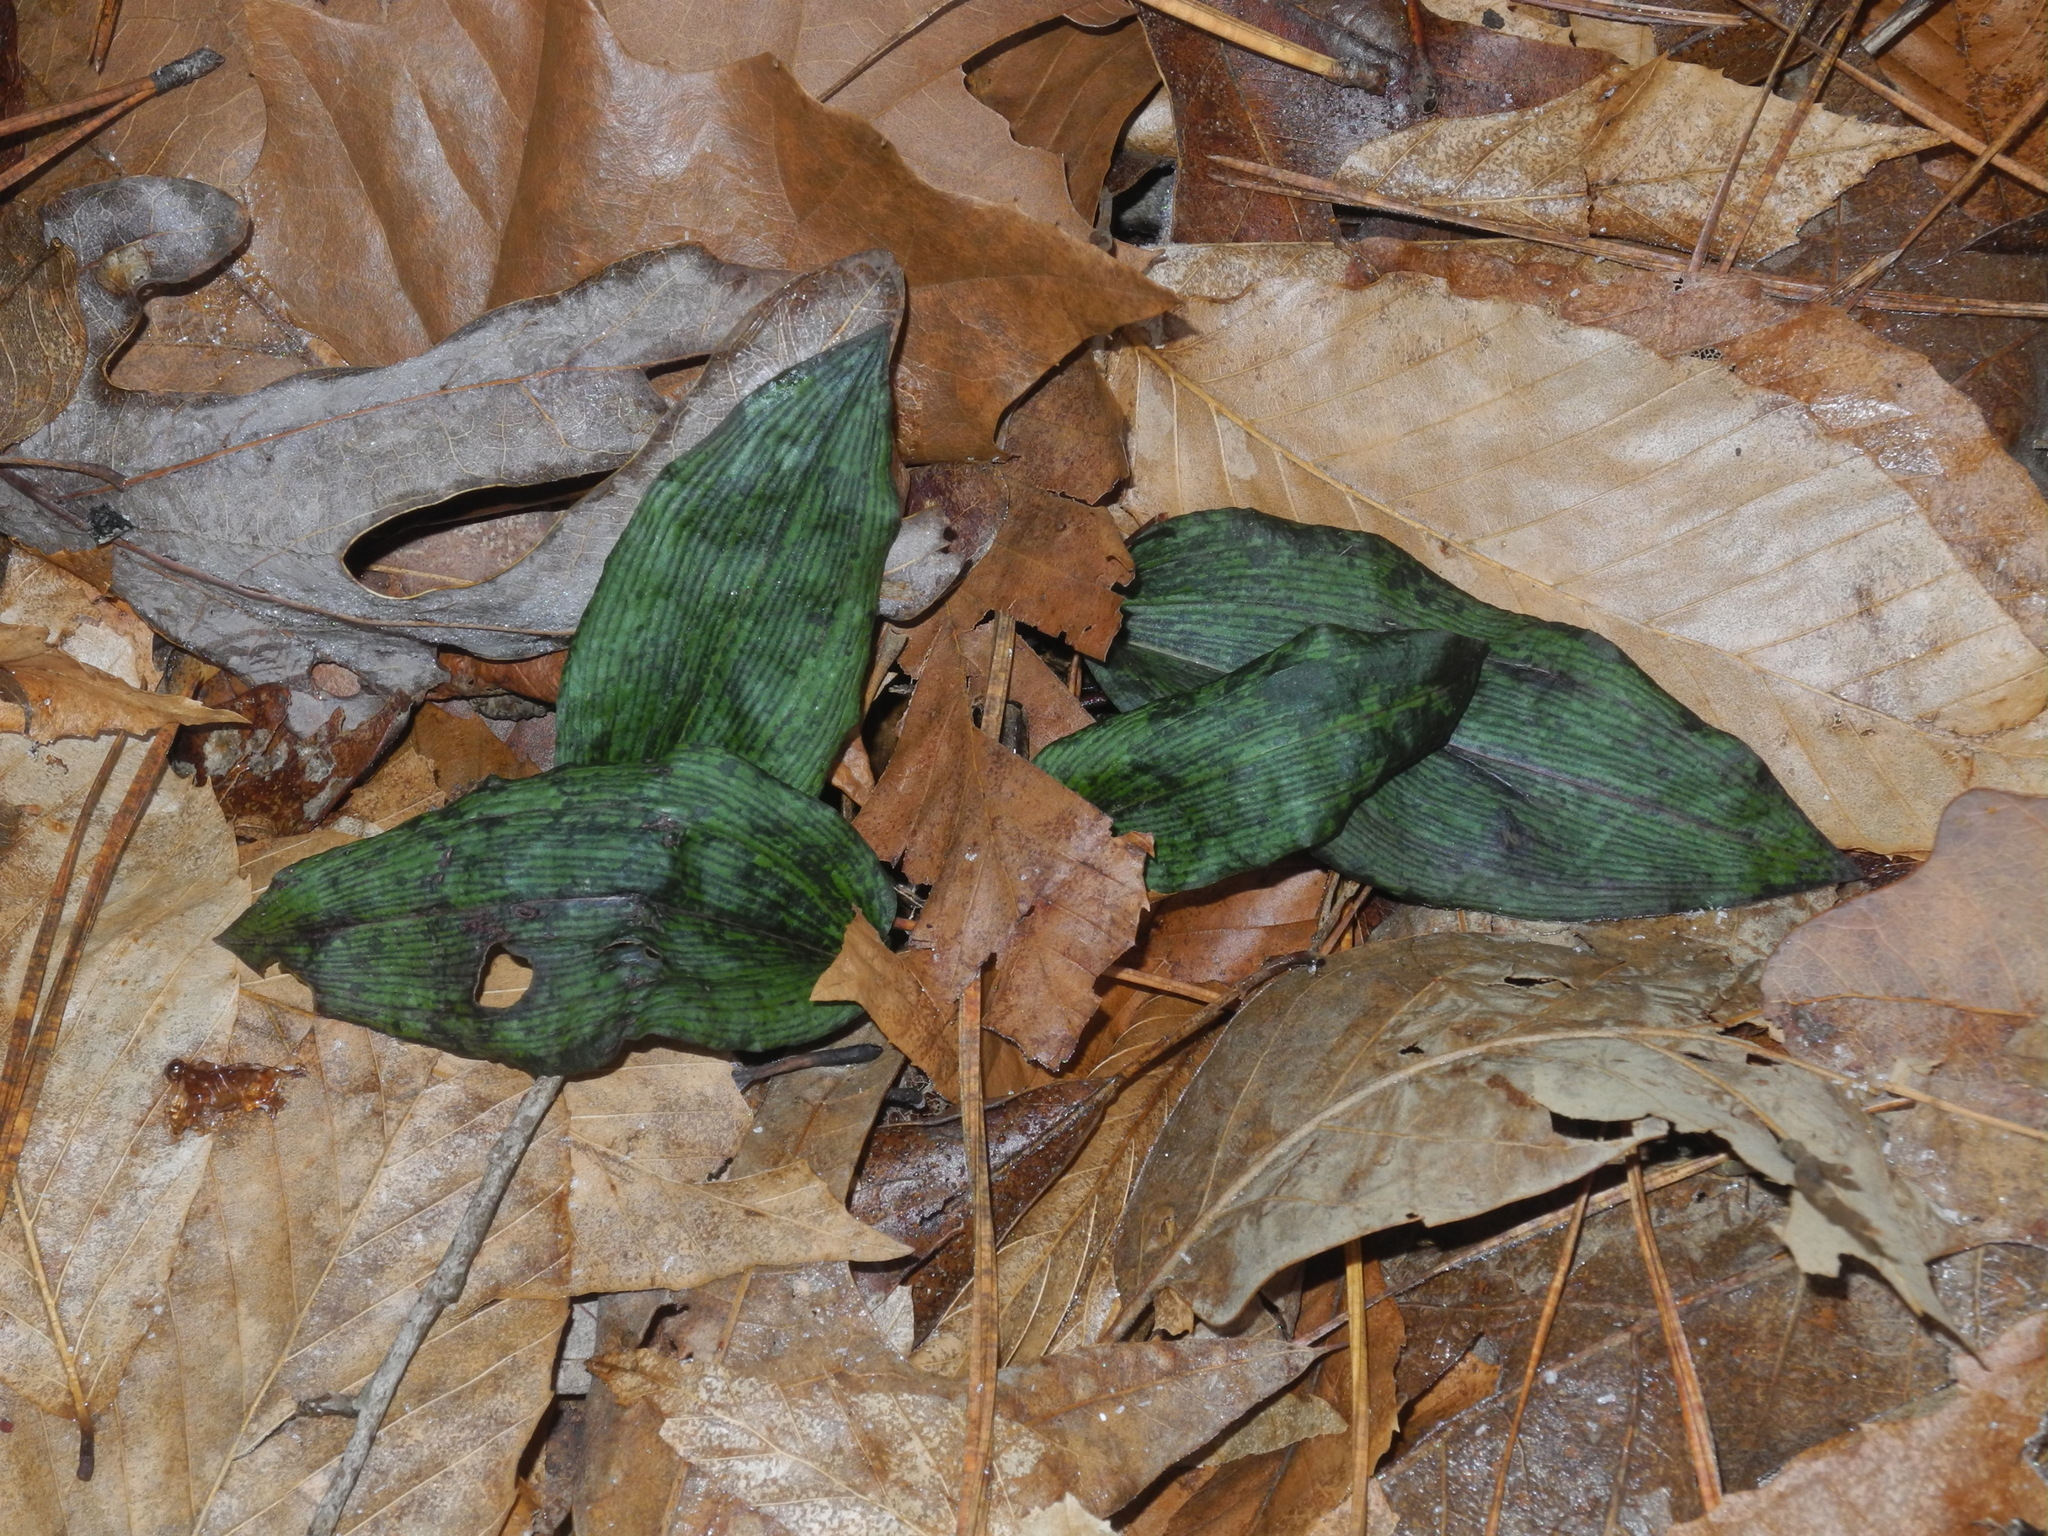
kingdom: Plantae
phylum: Tracheophyta
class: Liliopsida
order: Asparagales
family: Orchidaceae
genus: Aplectrum
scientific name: Aplectrum hyemale
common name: Adam-and-eve
